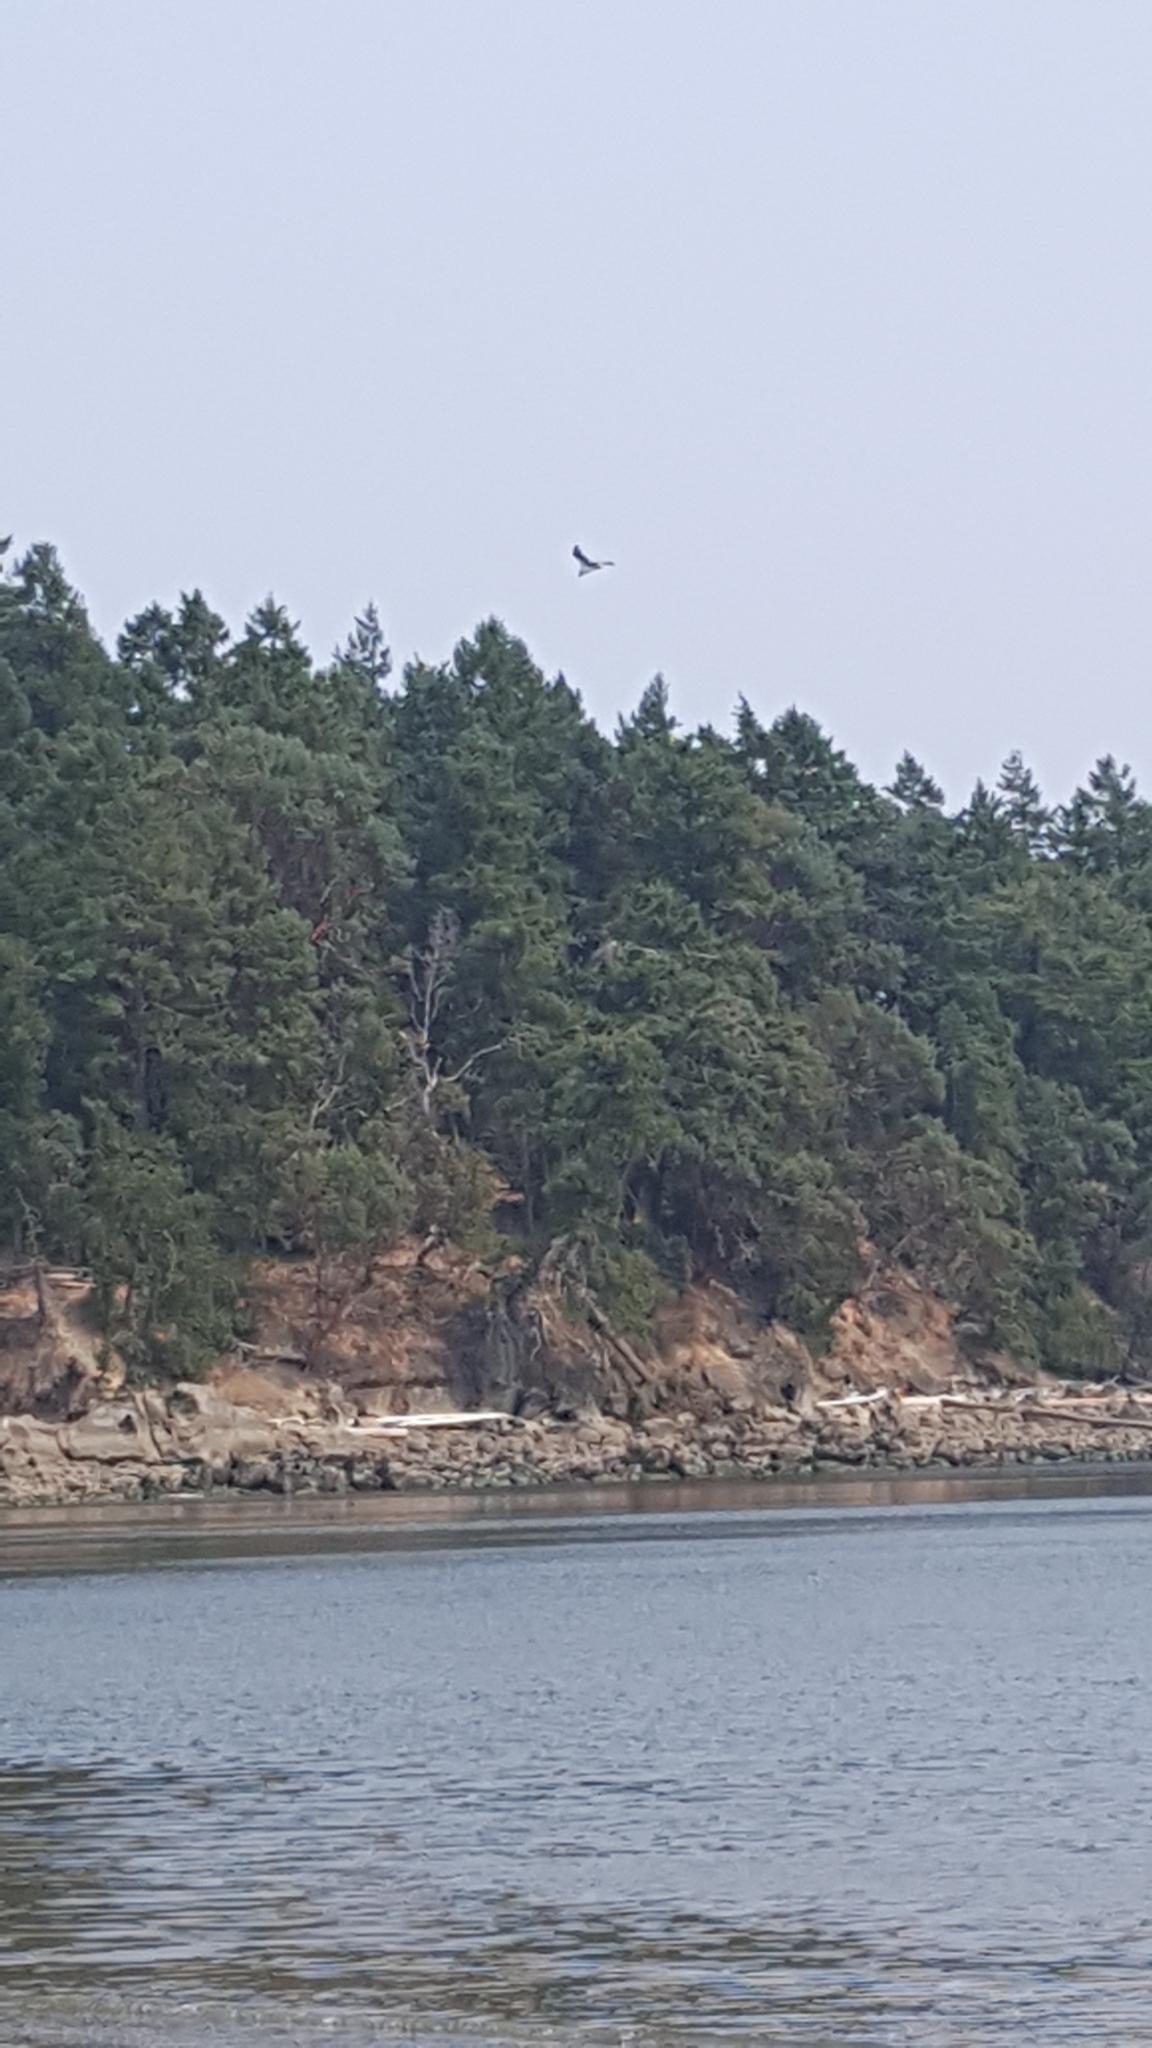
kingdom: Animalia
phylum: Chordata
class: Aves
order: Accipitriformes
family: Pandionidae
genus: Pandion
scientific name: Pandion haliaetus
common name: Osprey
